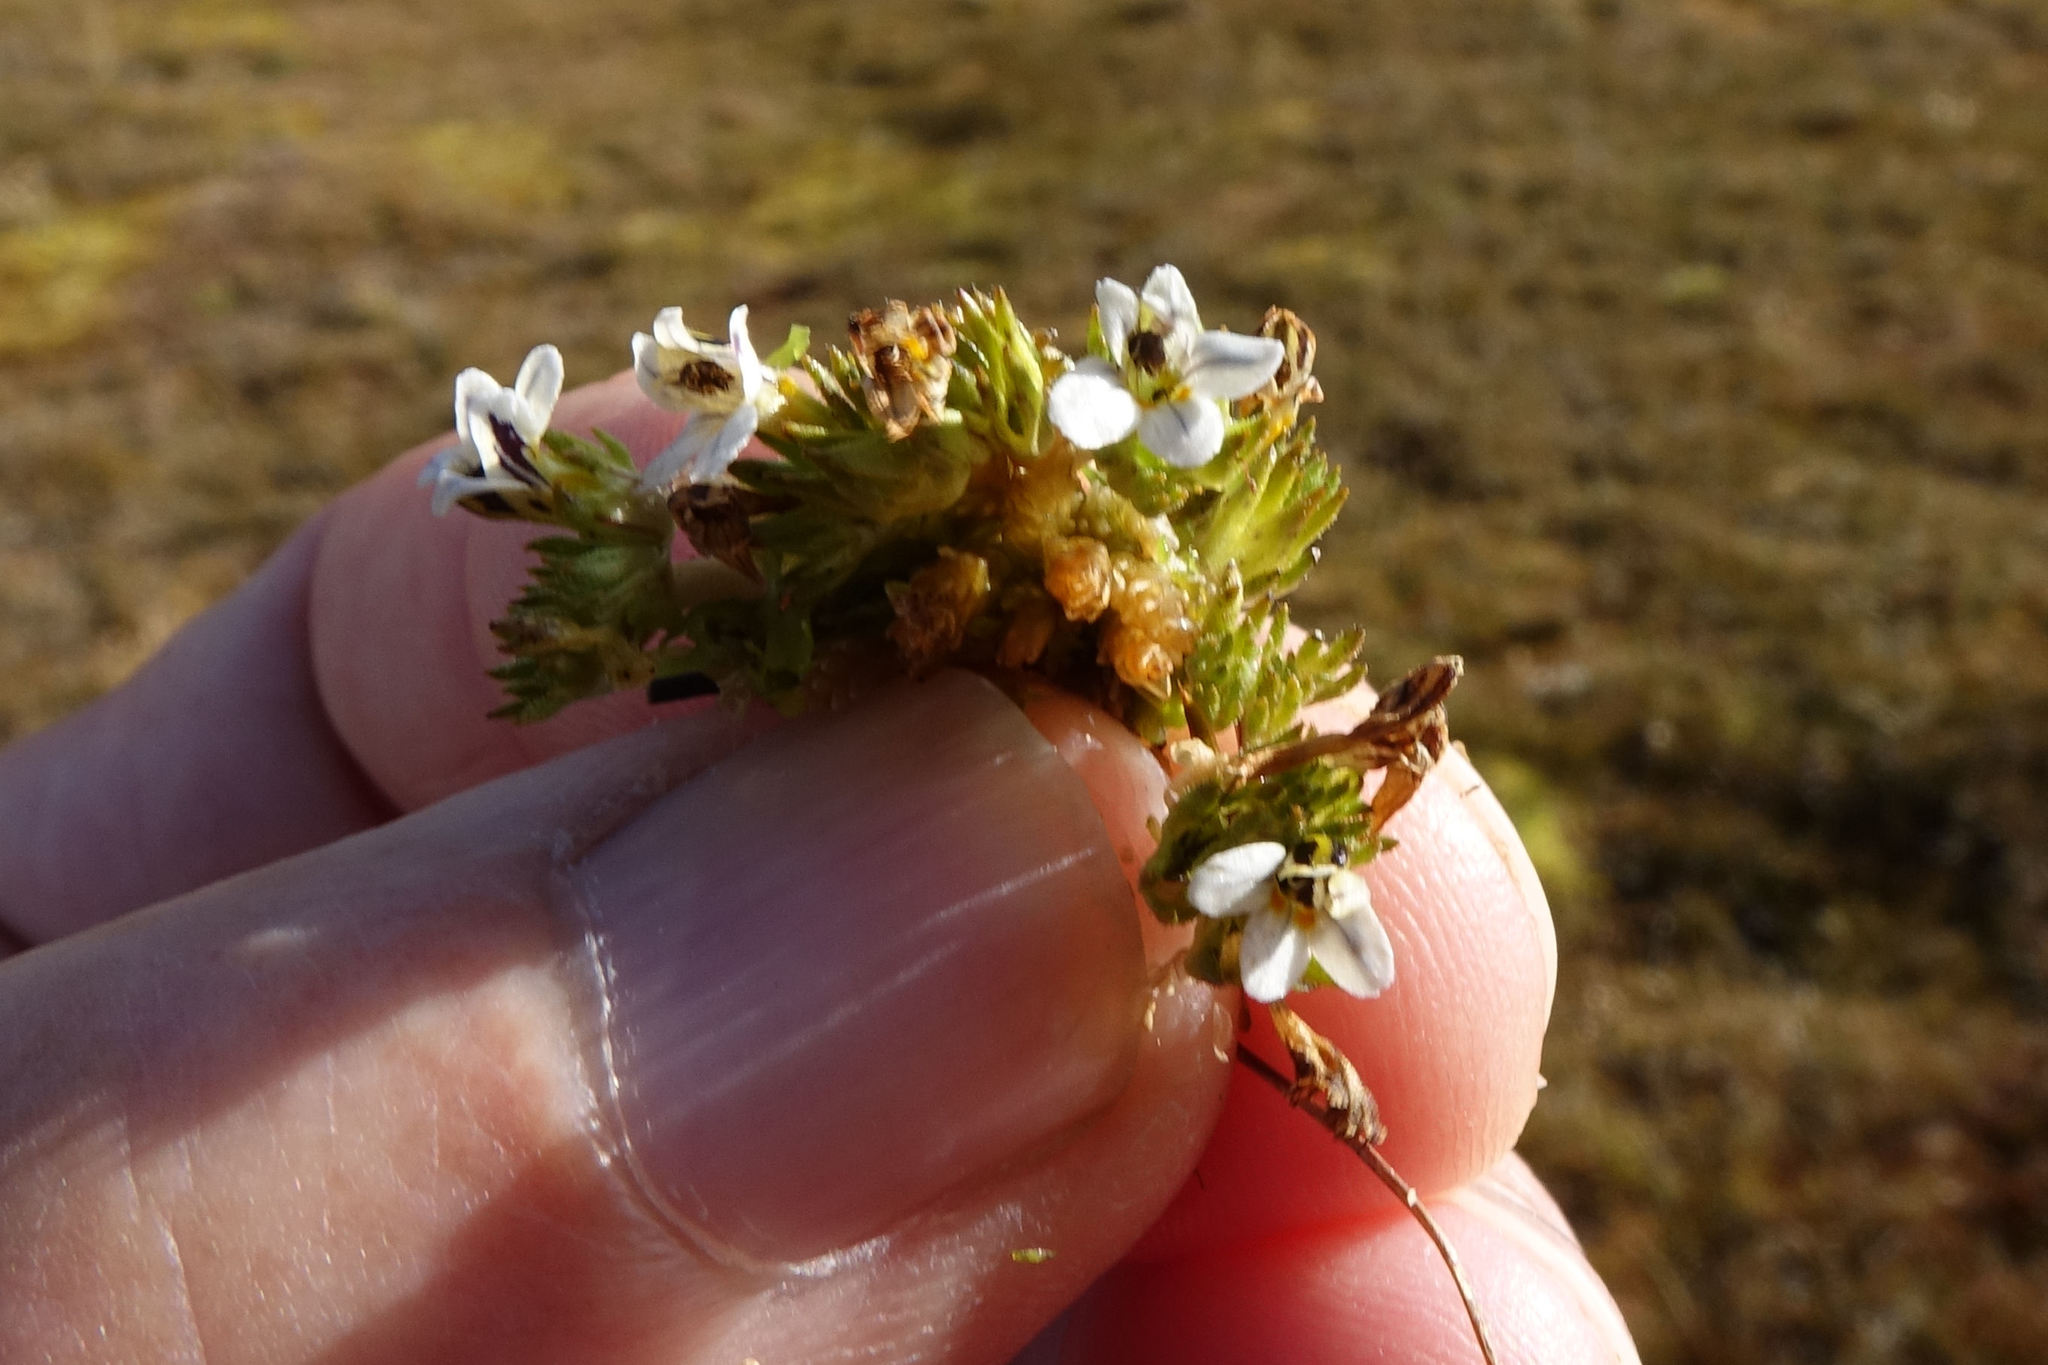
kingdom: Plantae
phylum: Tracheophyta
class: Magnoliopsida
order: Lamiales
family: Orobanchaceae
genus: Euphrasia
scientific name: Euphrasia dyeri
